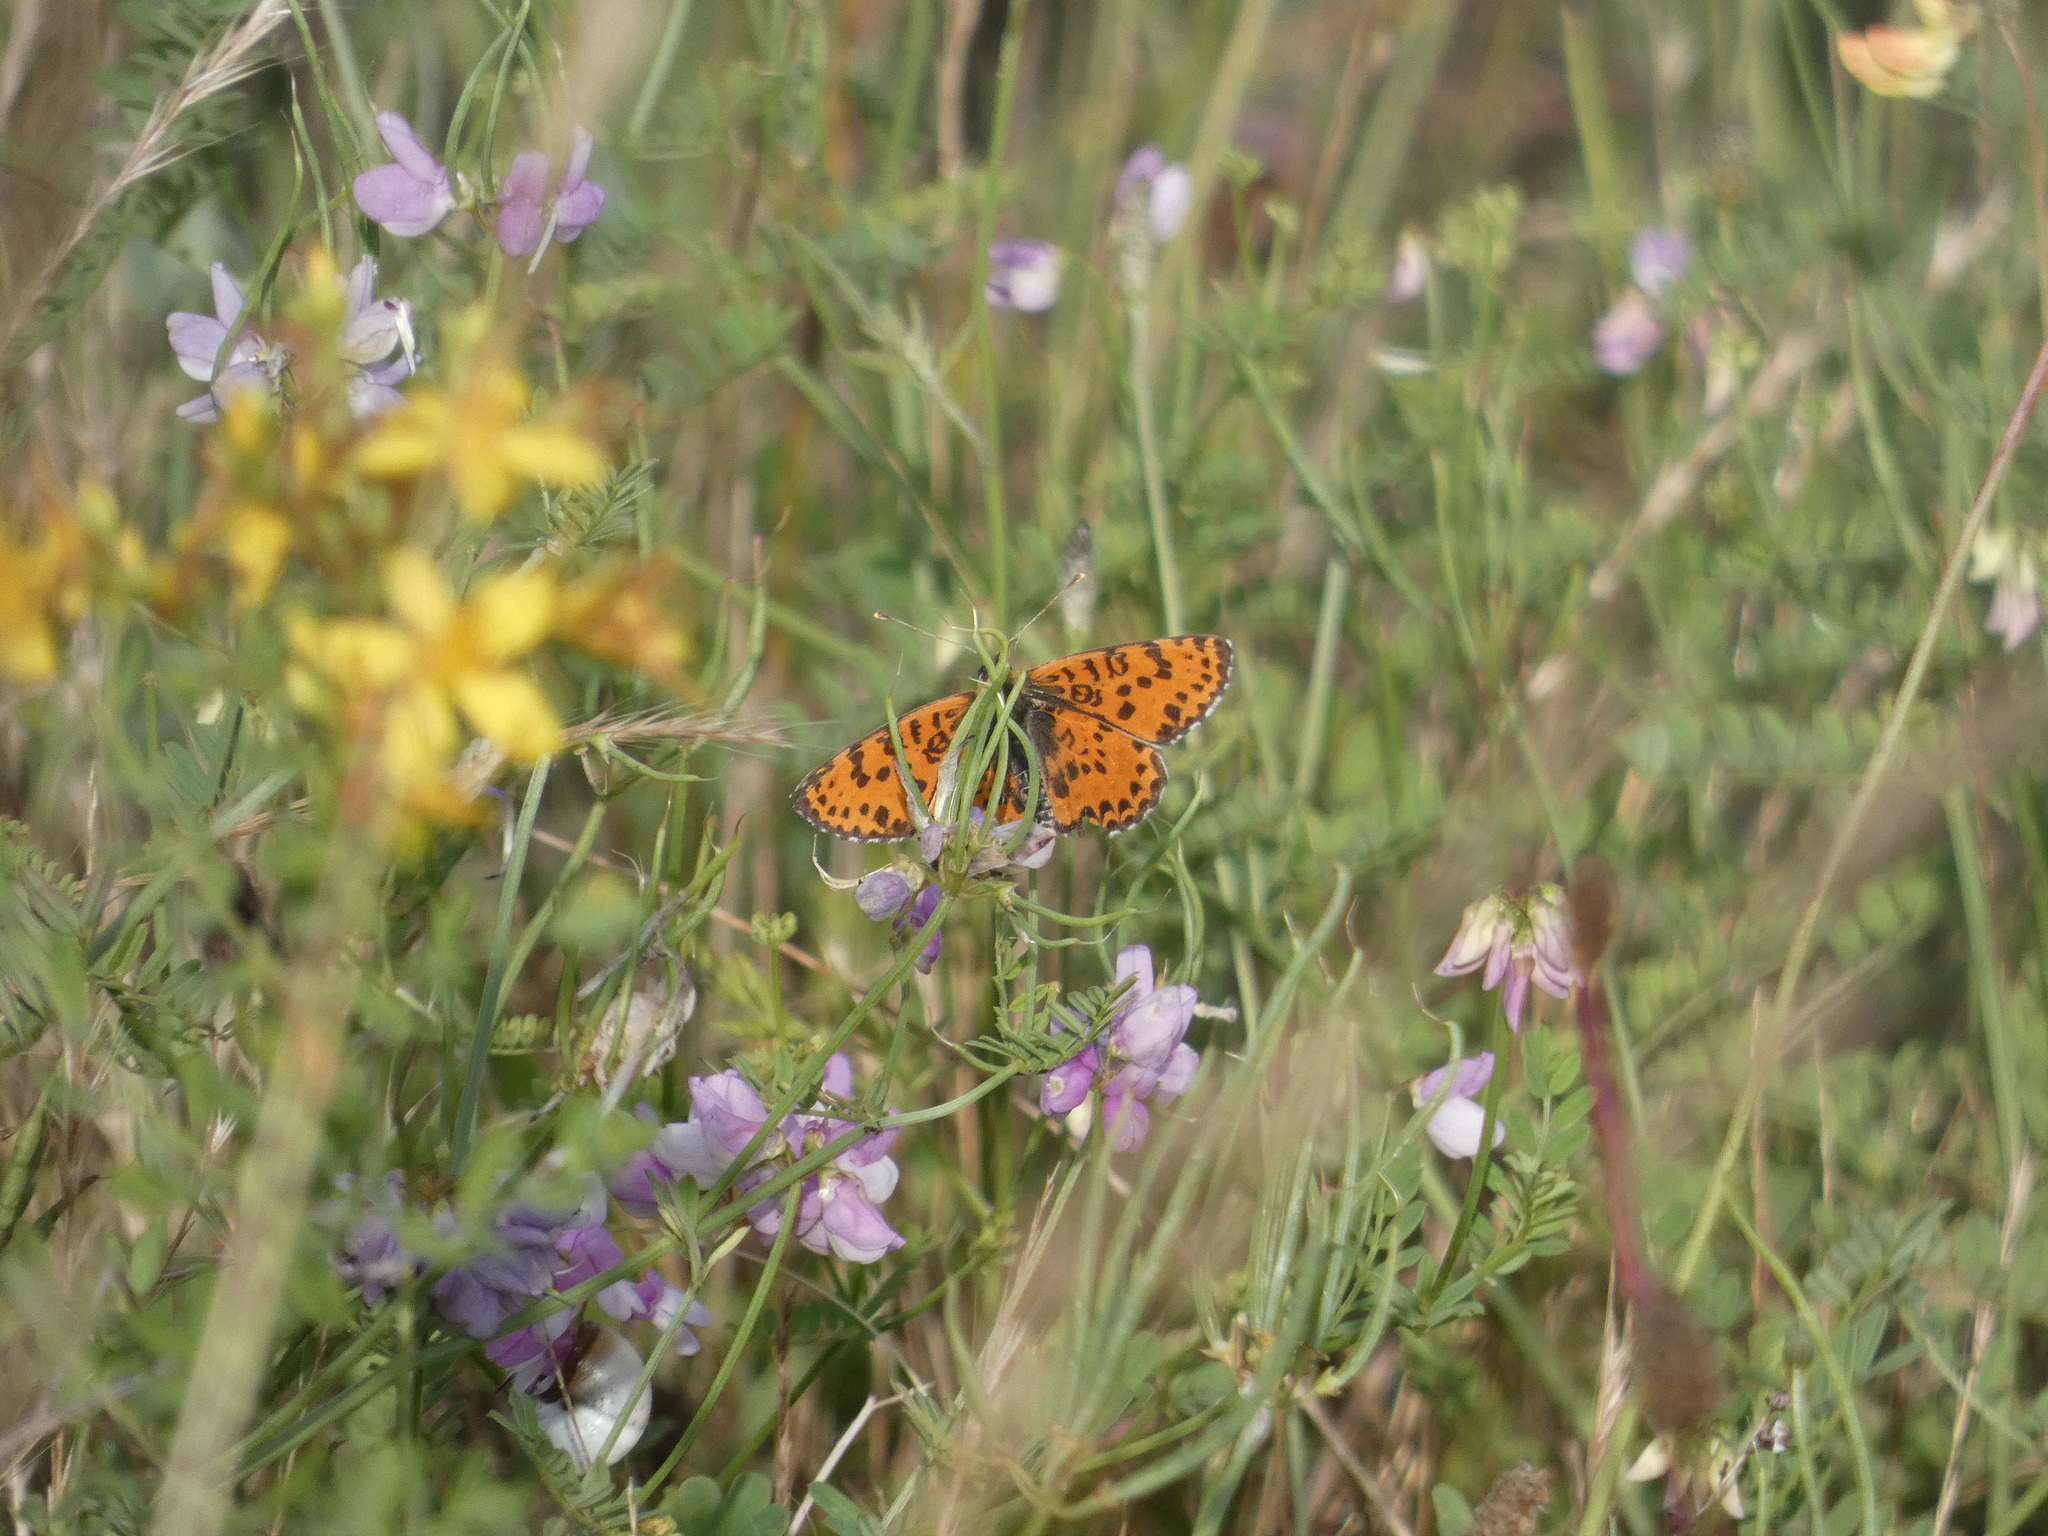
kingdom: Animalia
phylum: Arthropoda
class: Insecta
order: Lepidoptera
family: Nymphalidae
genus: Melitaea
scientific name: Melitaea didyma
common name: Spotted fritillary
